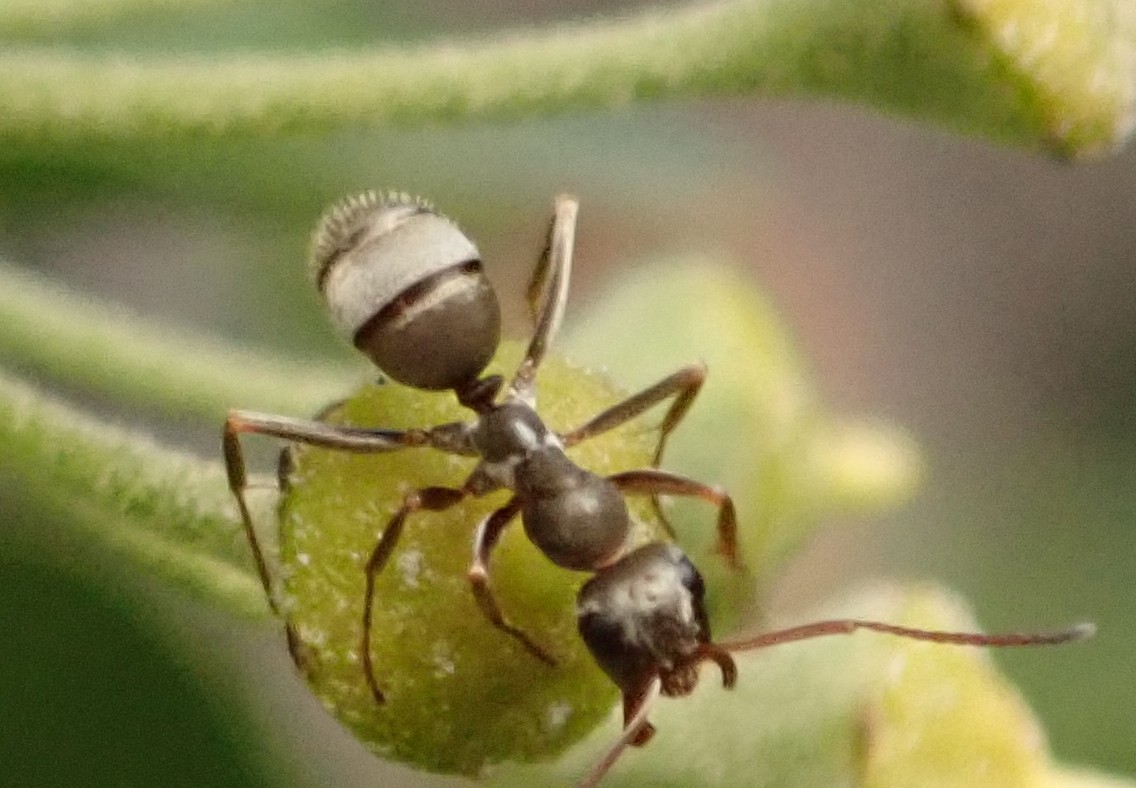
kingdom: Animalia
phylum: Arthropoda
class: Insecta
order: Hymenoptera
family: Formicidae
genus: Formica
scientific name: Formica cinerea
